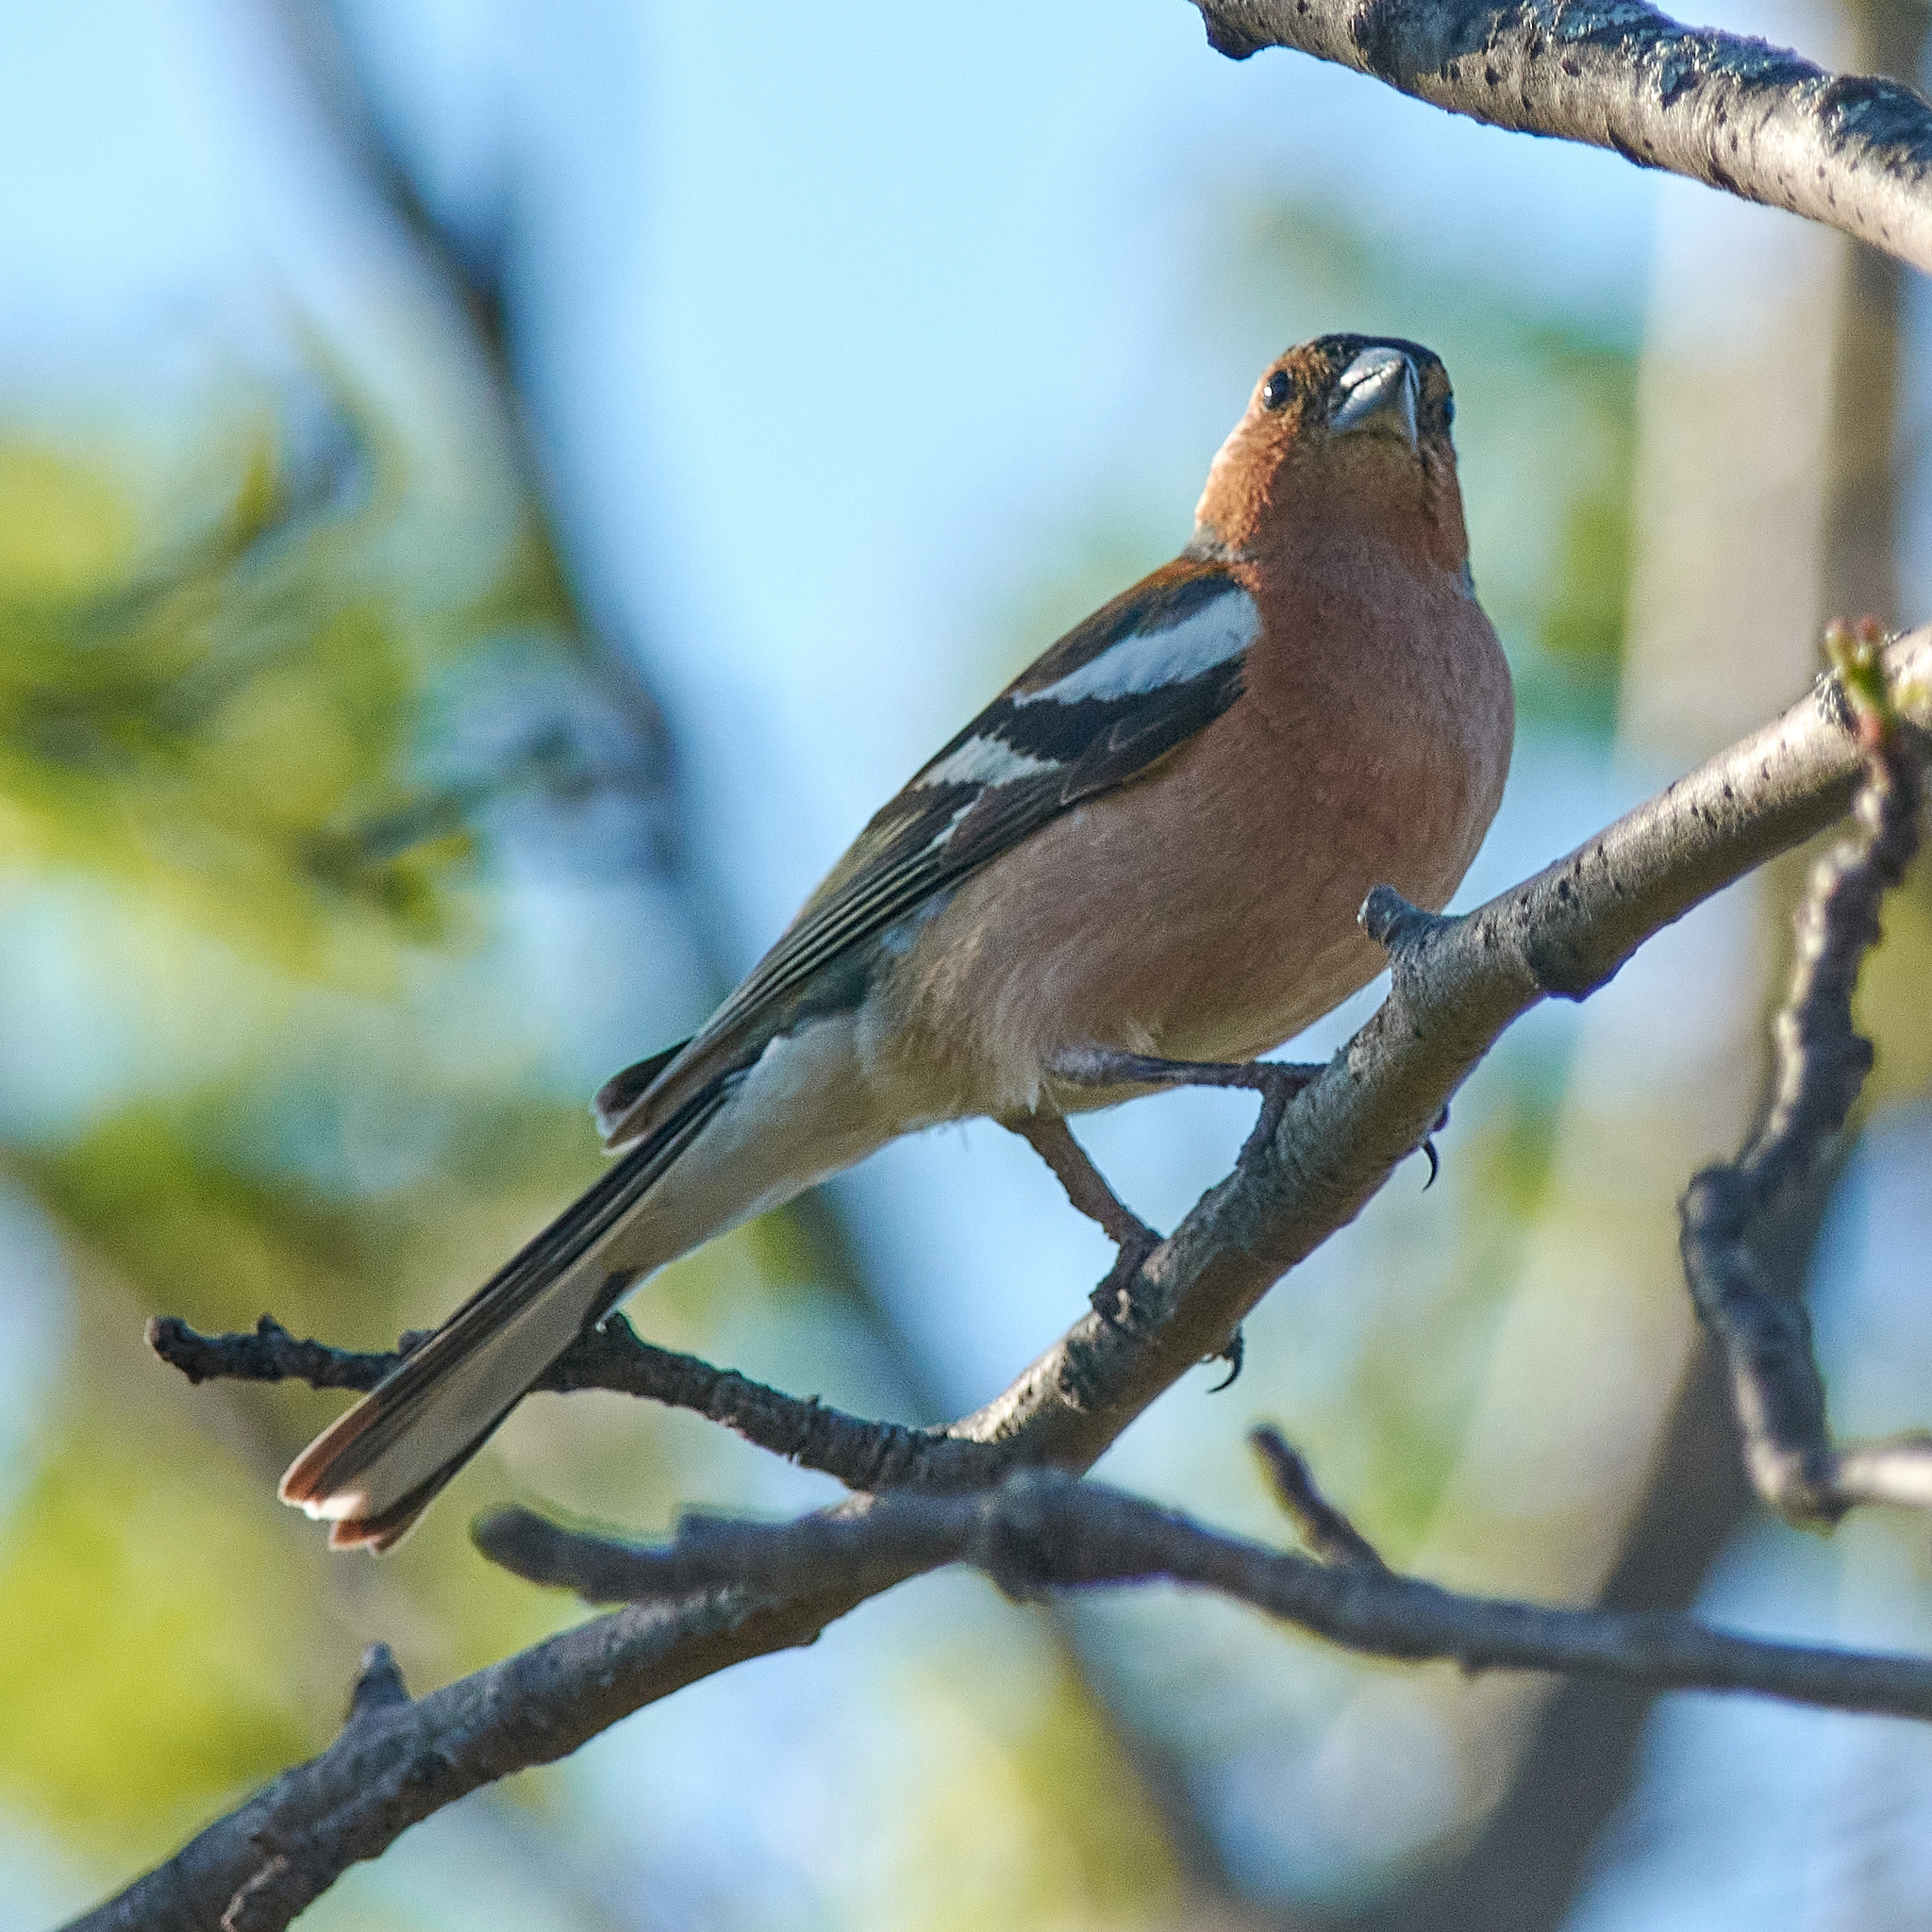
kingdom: Animalia
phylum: Chordata
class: Aves
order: Passeriformes
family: Fringillidae
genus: Fringilla
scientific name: Fringilla coelebs
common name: Common chaffinch
